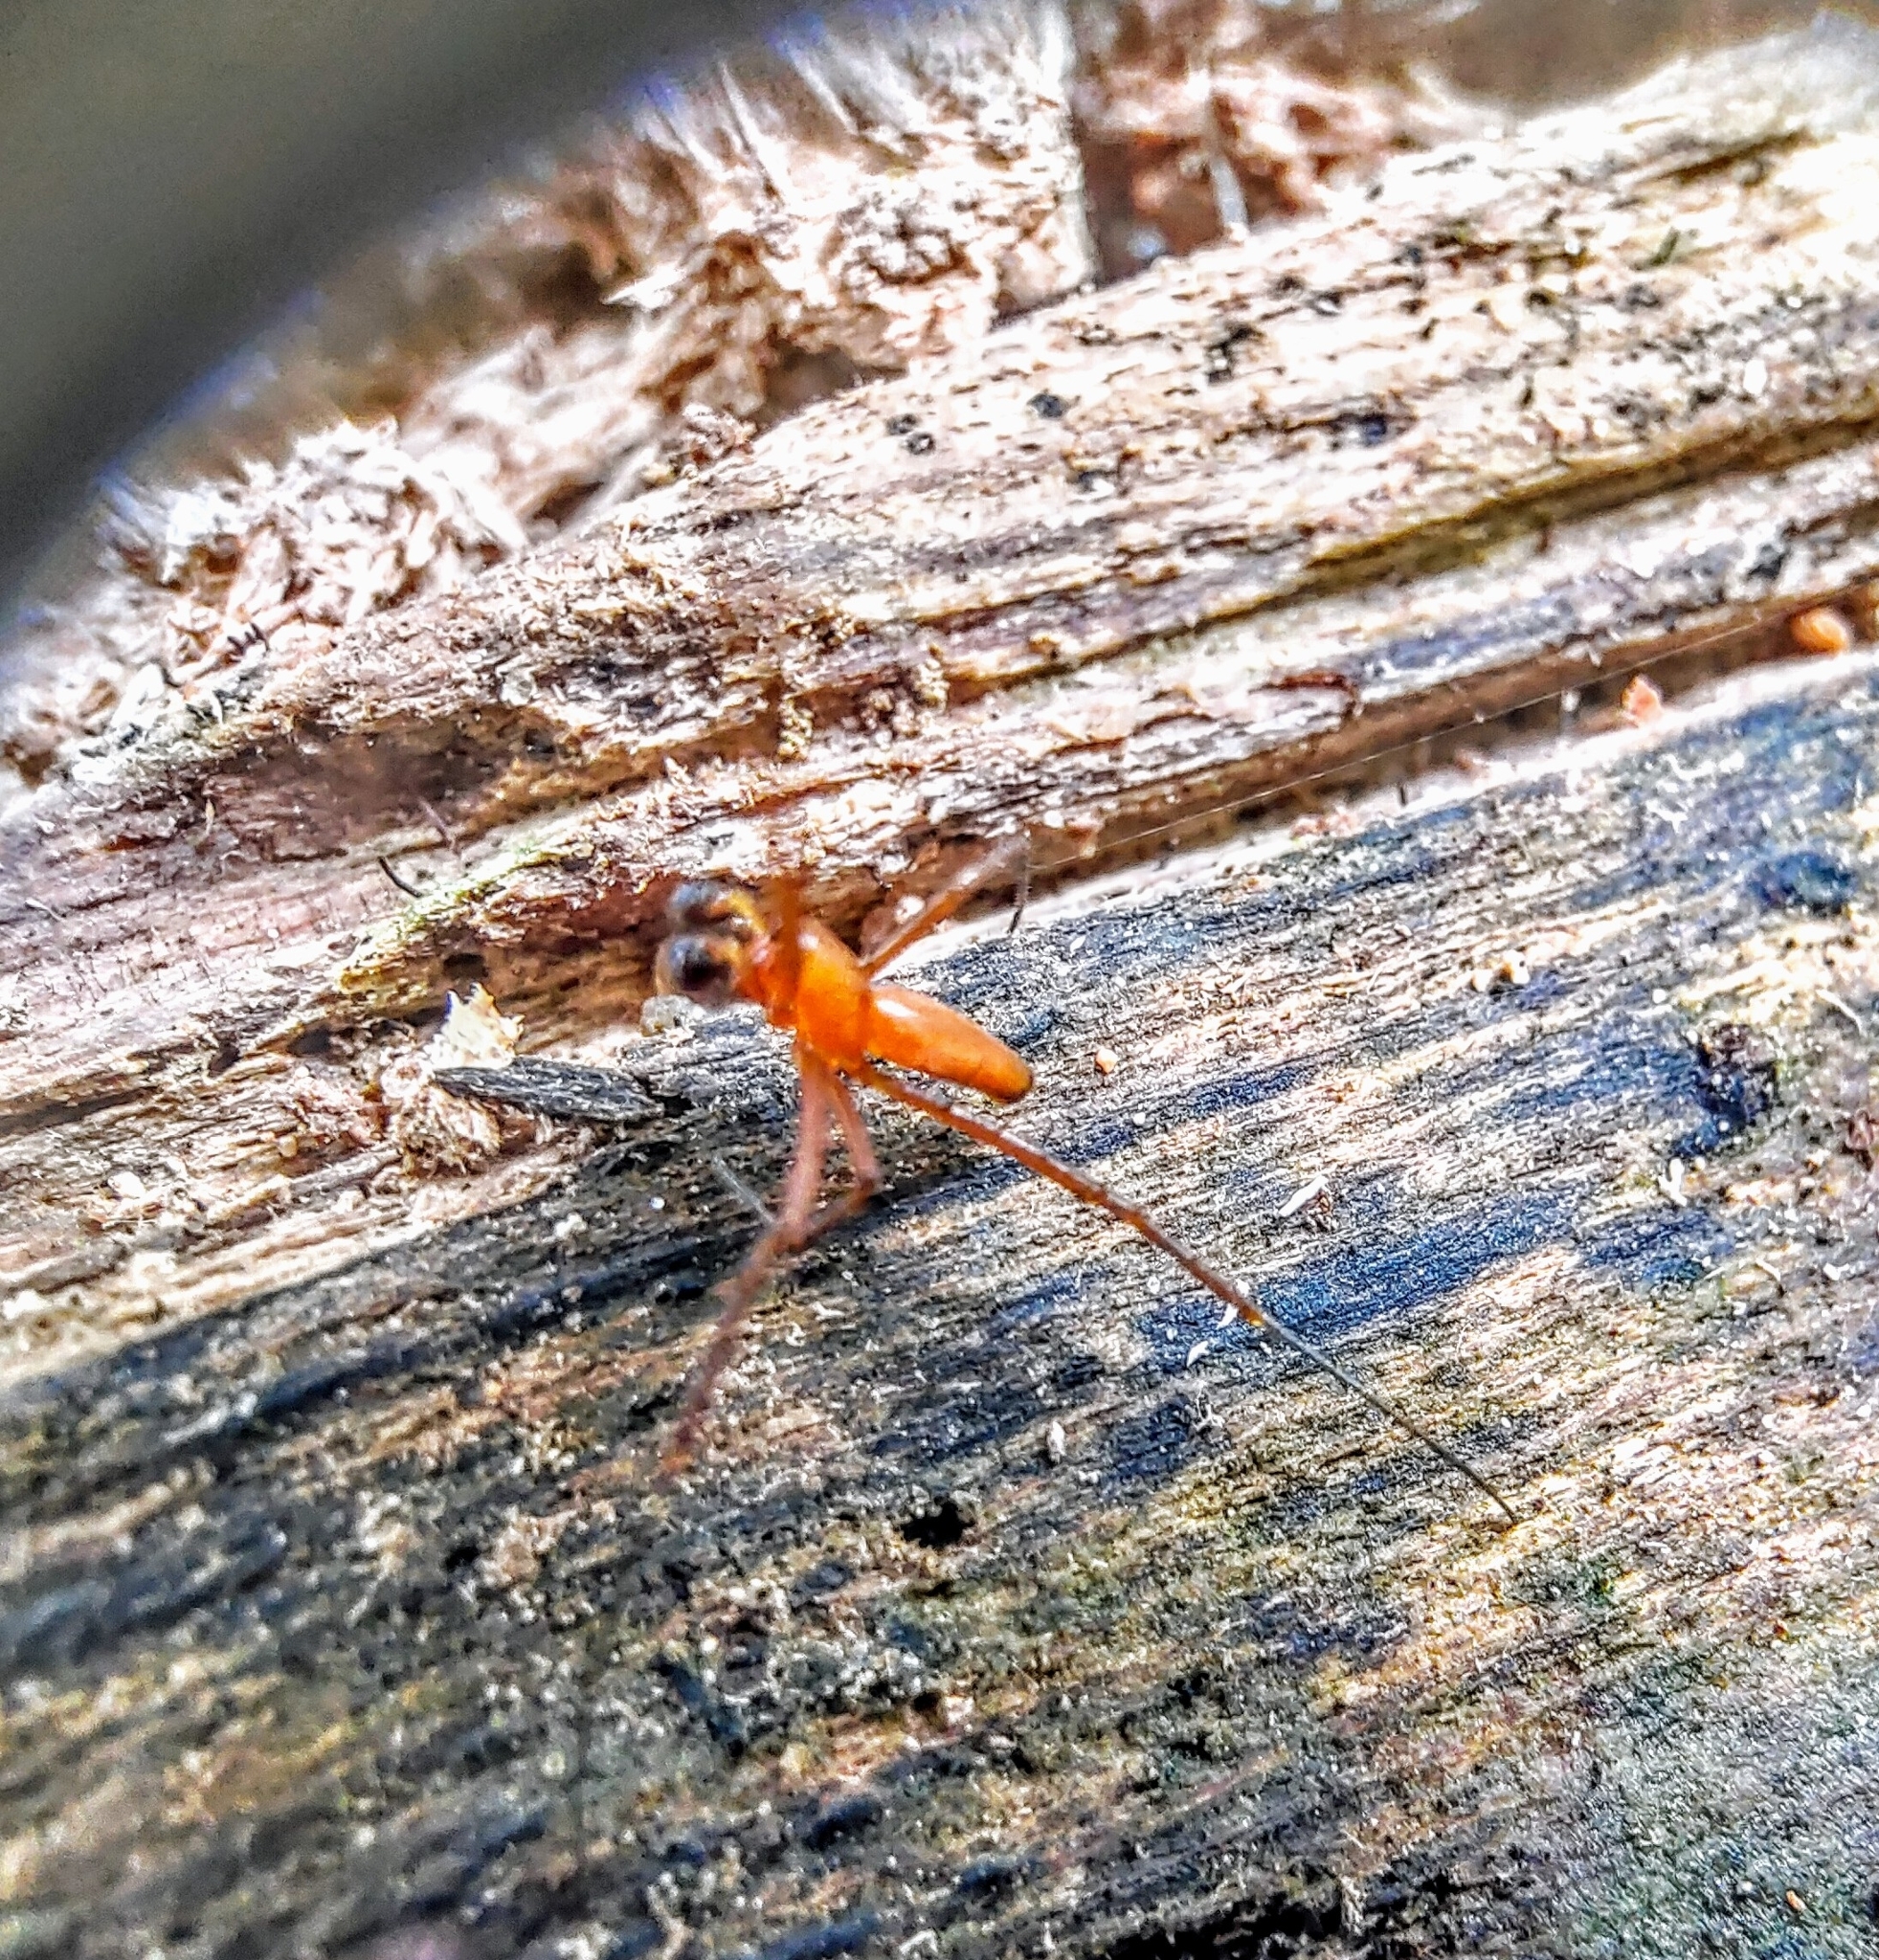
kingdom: Animalia
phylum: Arthropoda
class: Arachnida
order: Araneae
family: Araneidae
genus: Nephila
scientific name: Nephila pilipes
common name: Giant golden orb weaver
